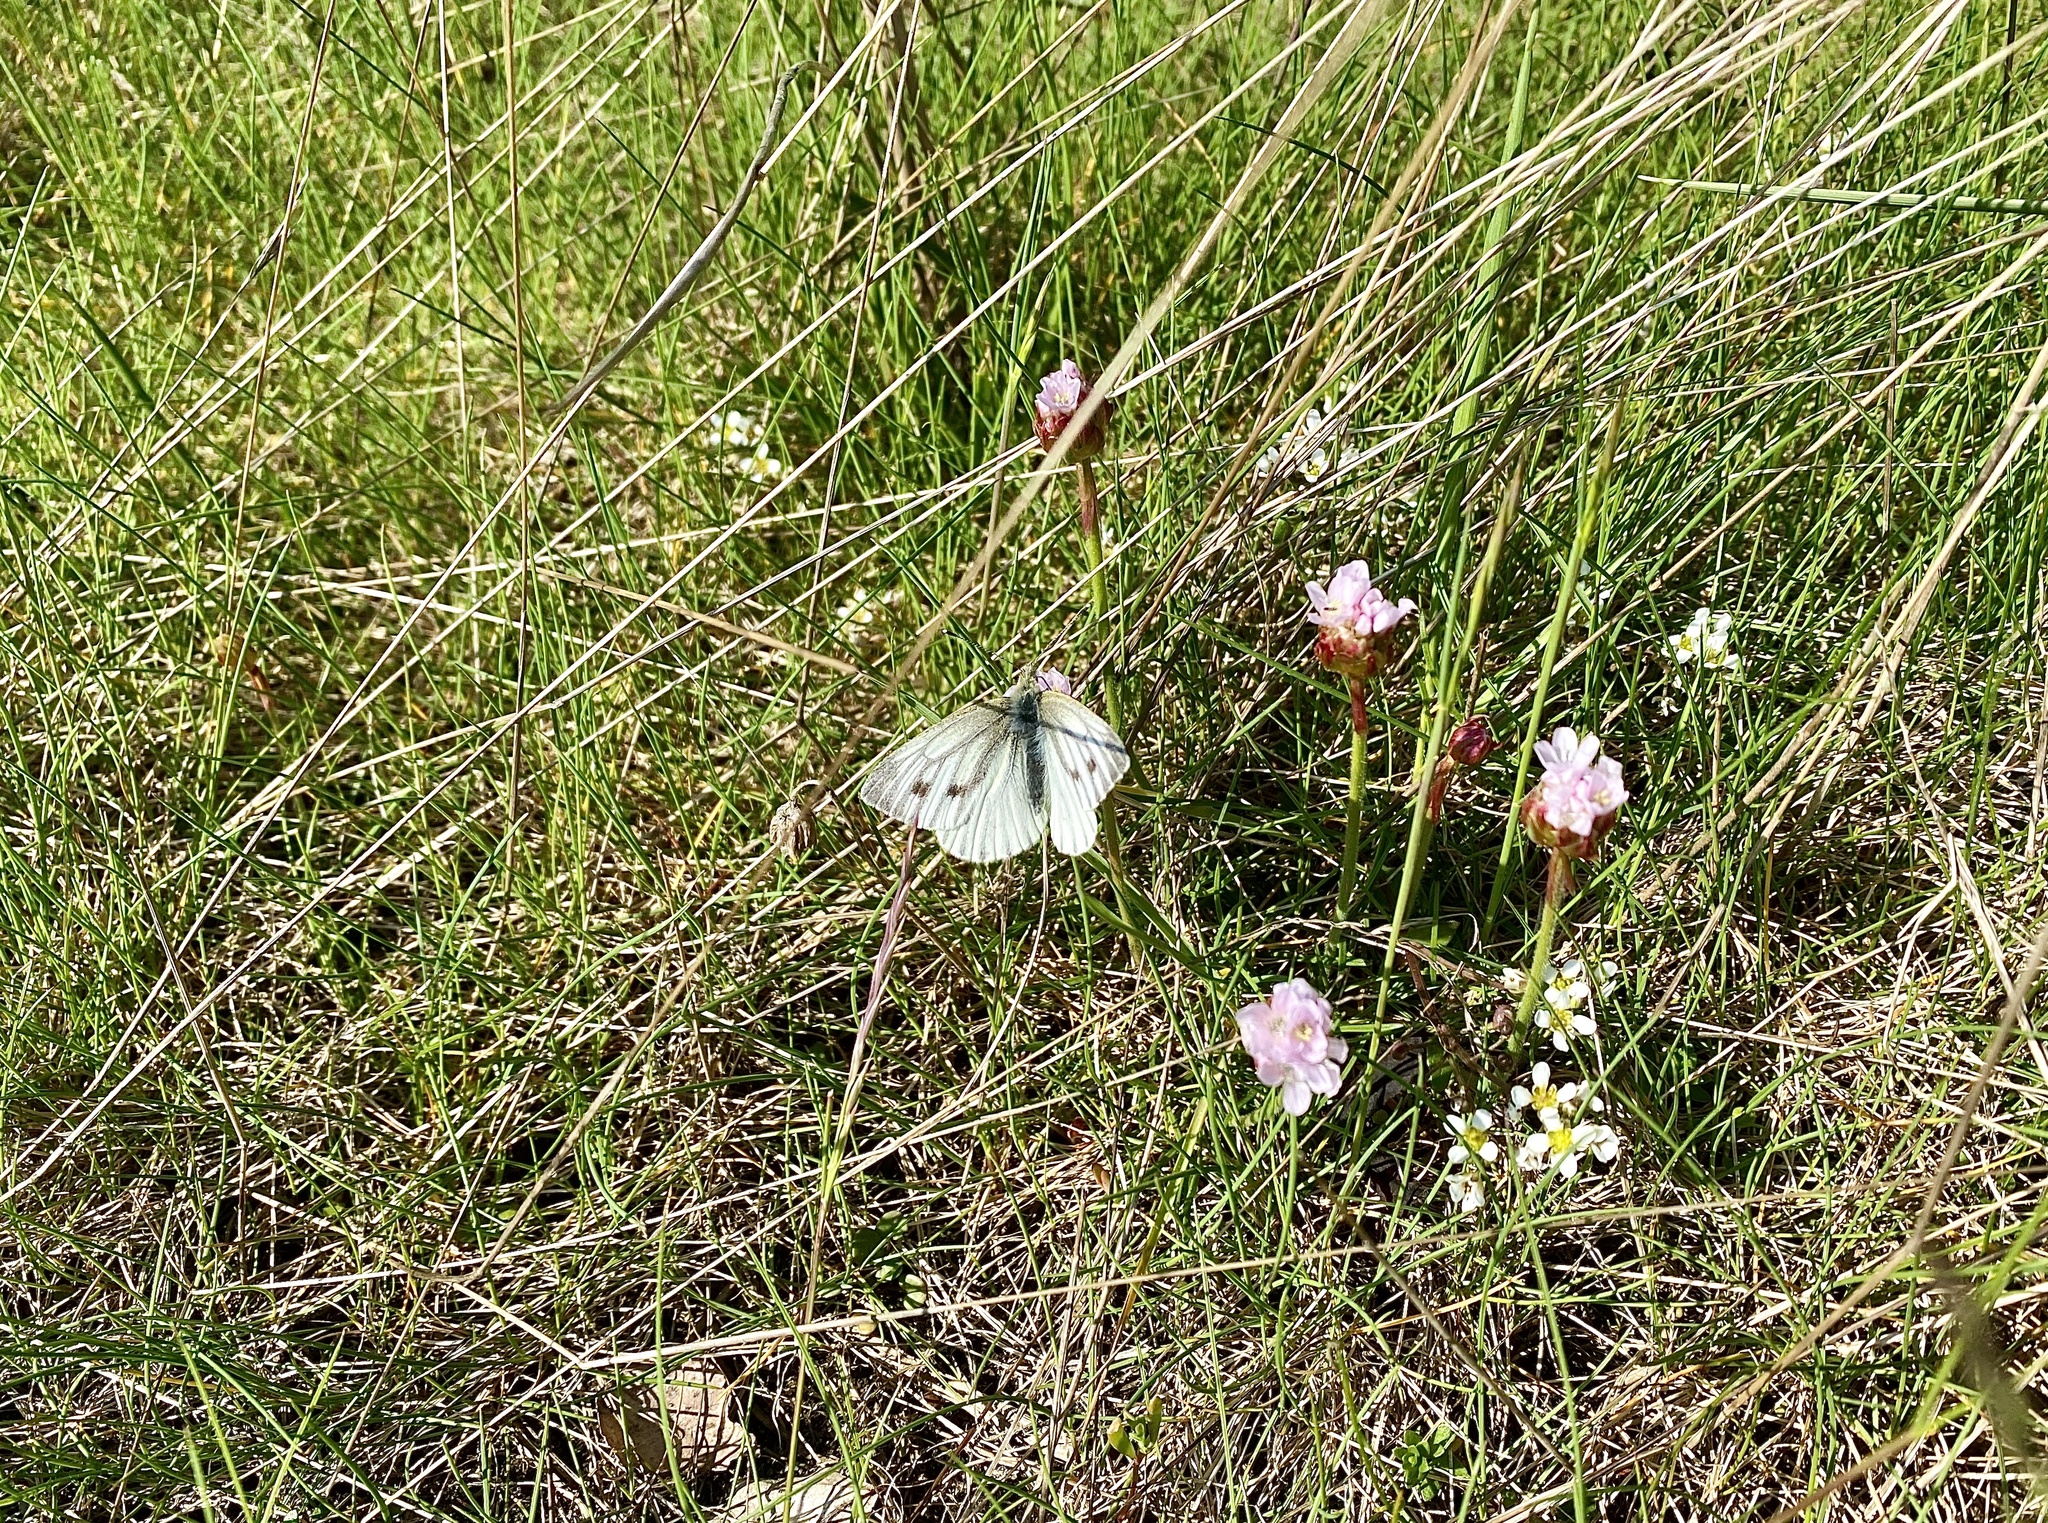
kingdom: Animalia
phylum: Arthropoda
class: Insecta
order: Lepidoptera
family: Pieridae
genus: Pieris
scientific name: Pieris napi
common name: Green-veined white
